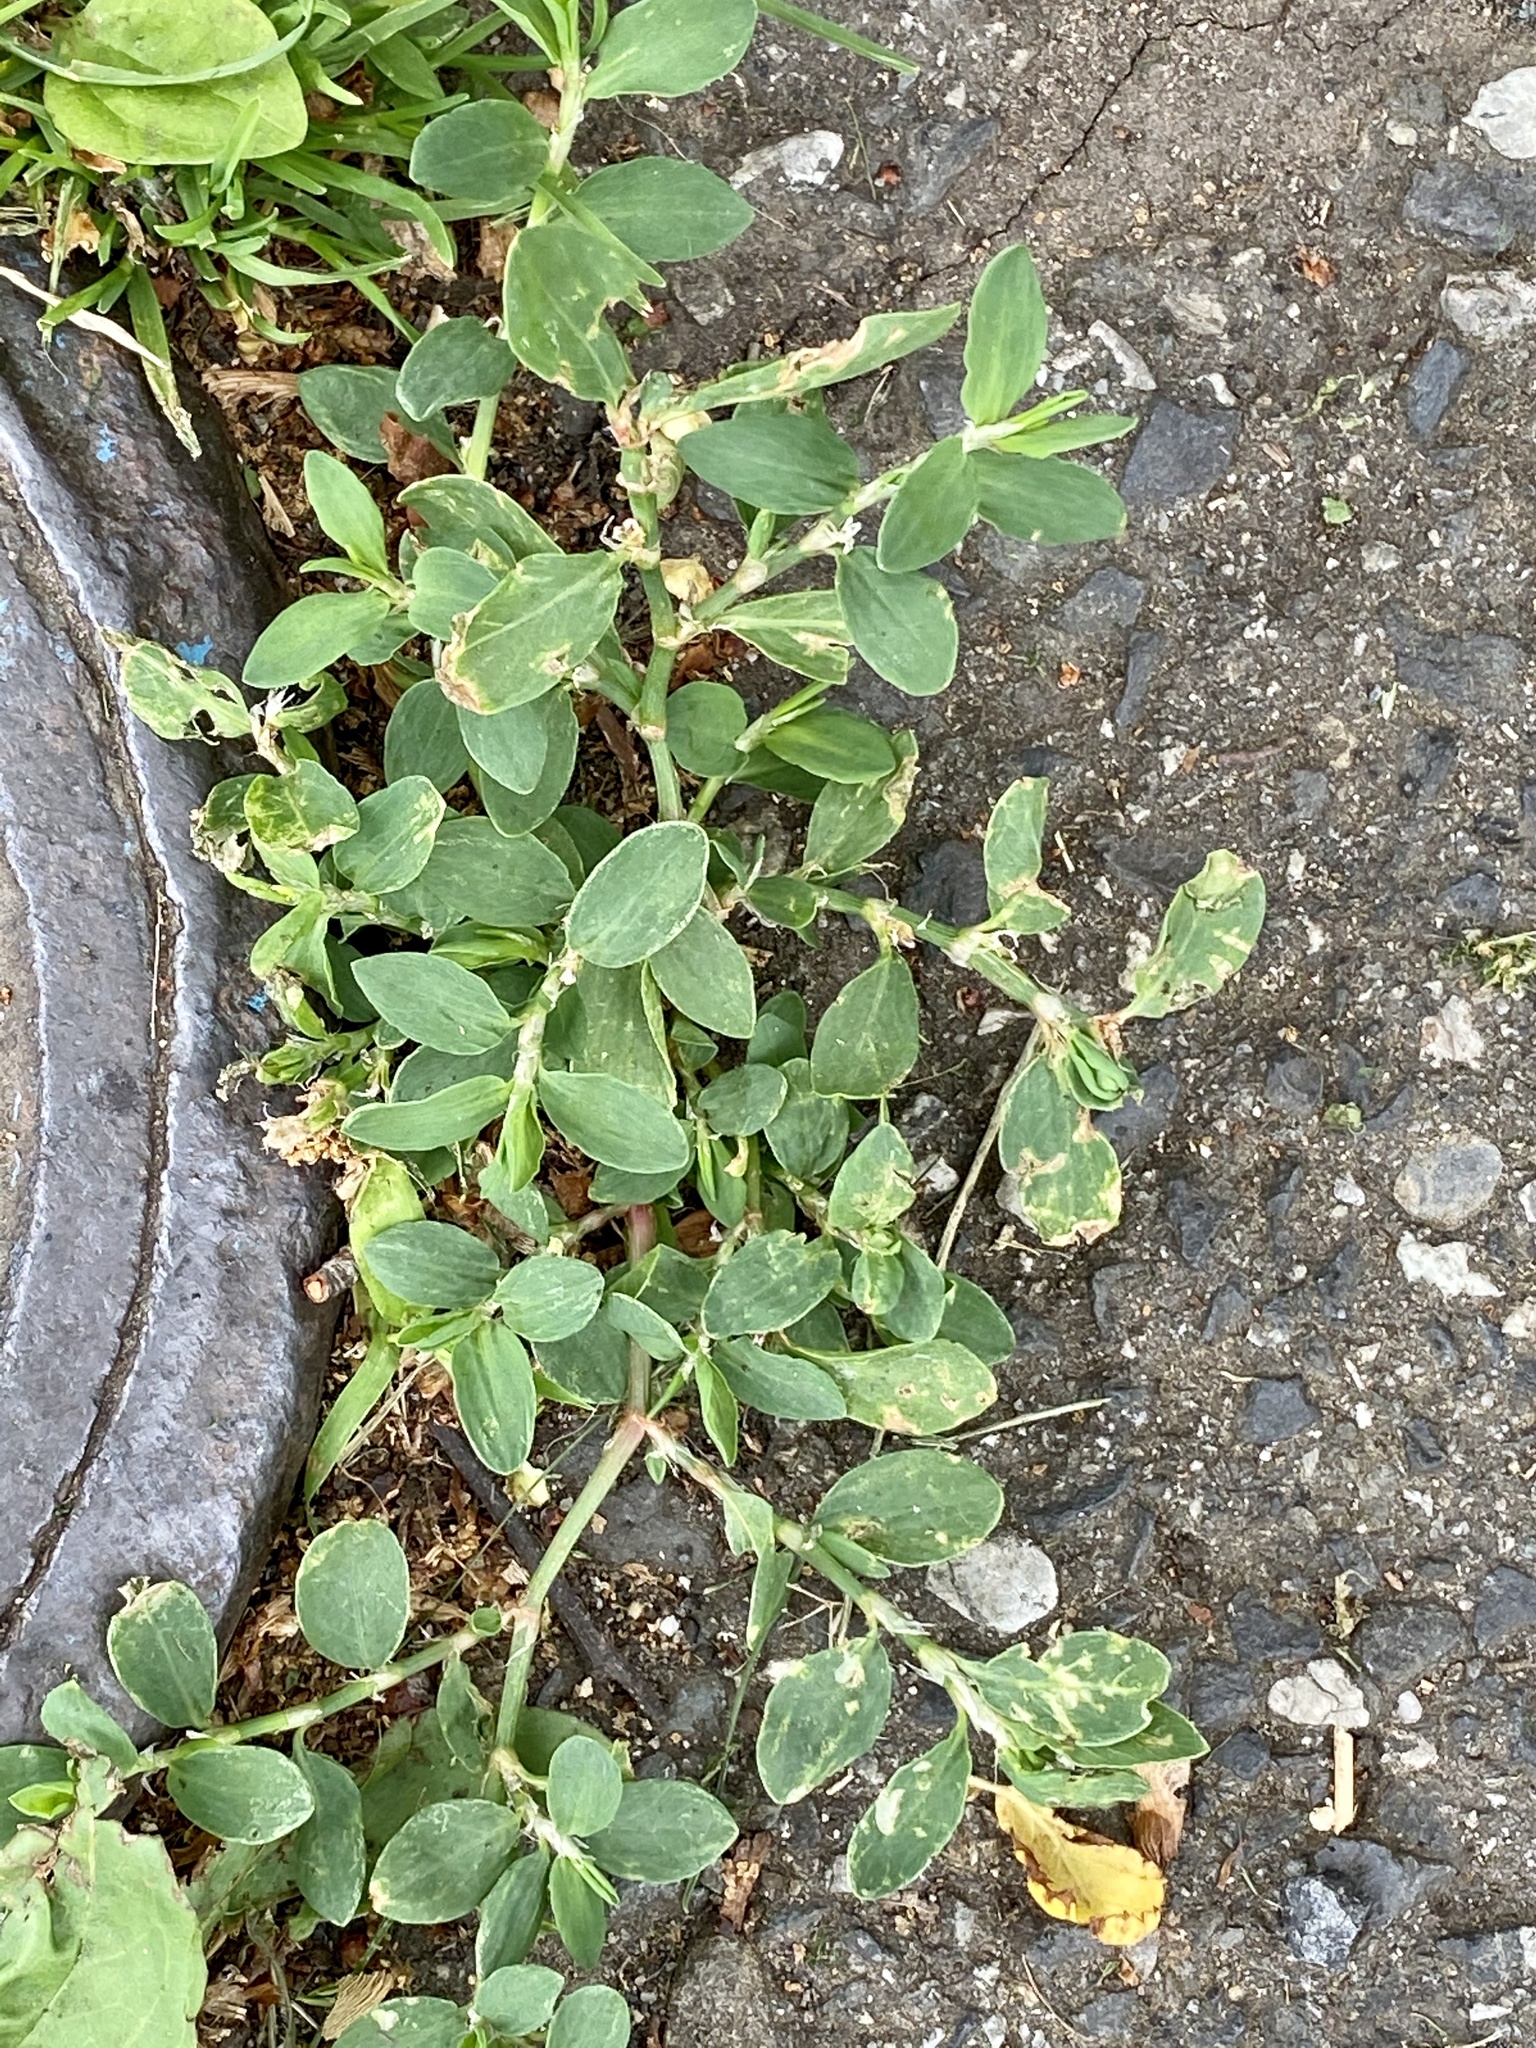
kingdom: Plantae
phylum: Tracheophyta
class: Magnoliopsida
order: Caryophyllales
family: Polygonaceae
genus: Polygonum
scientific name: Polygonum aviculare
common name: Prostrate knotweed
